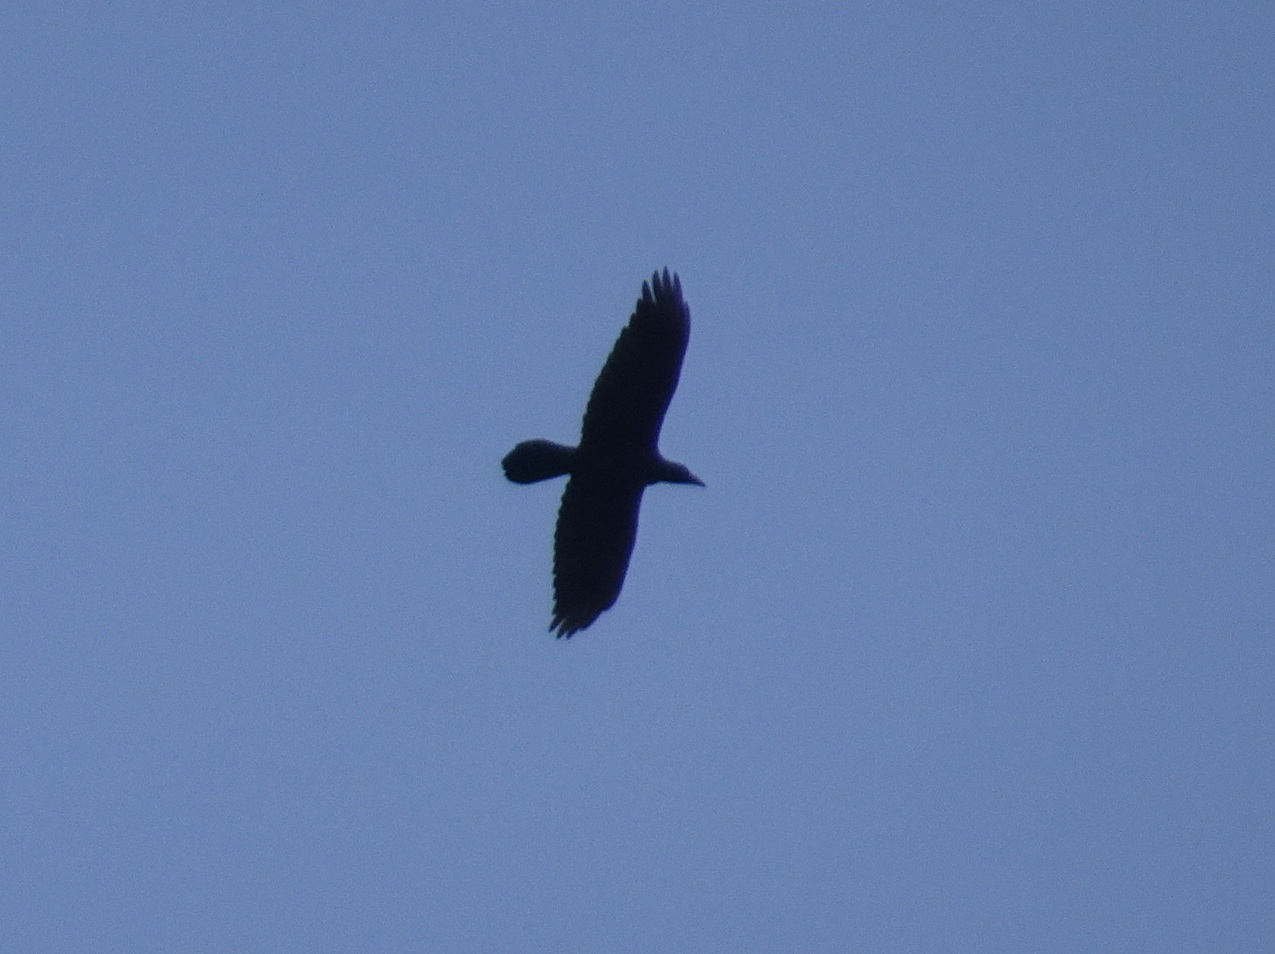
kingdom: Animalia
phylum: Chordata
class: Aves
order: Passeriformes
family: Corvidae
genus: Corvus
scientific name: Corvus corax
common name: Common raven
